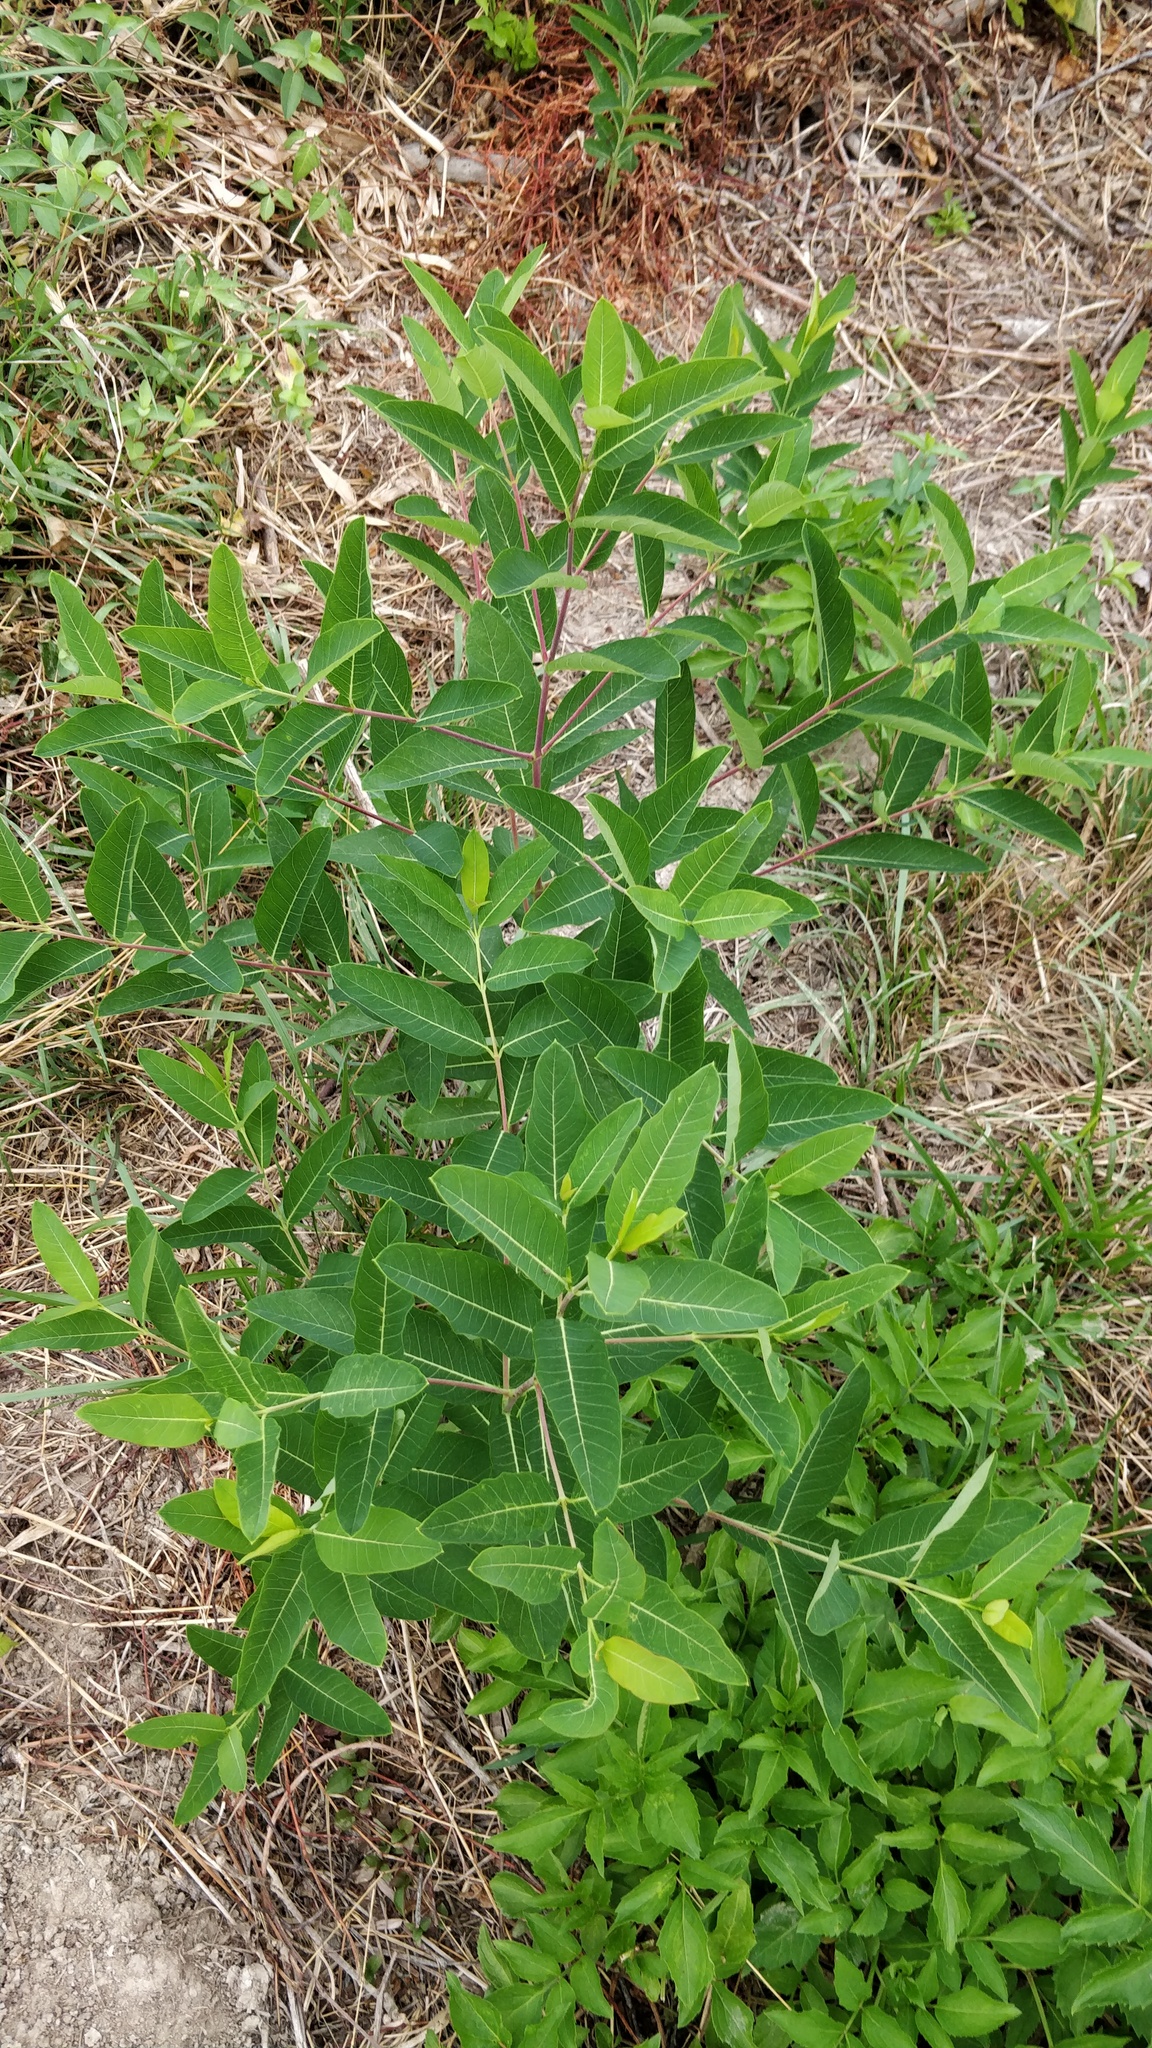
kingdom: Plantae
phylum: Tracheophyta
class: Magnoliopsida
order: Gentianales
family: Apocynaceae
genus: Apocynum
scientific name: Apocynum cannabinum
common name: Hemp dogbane
